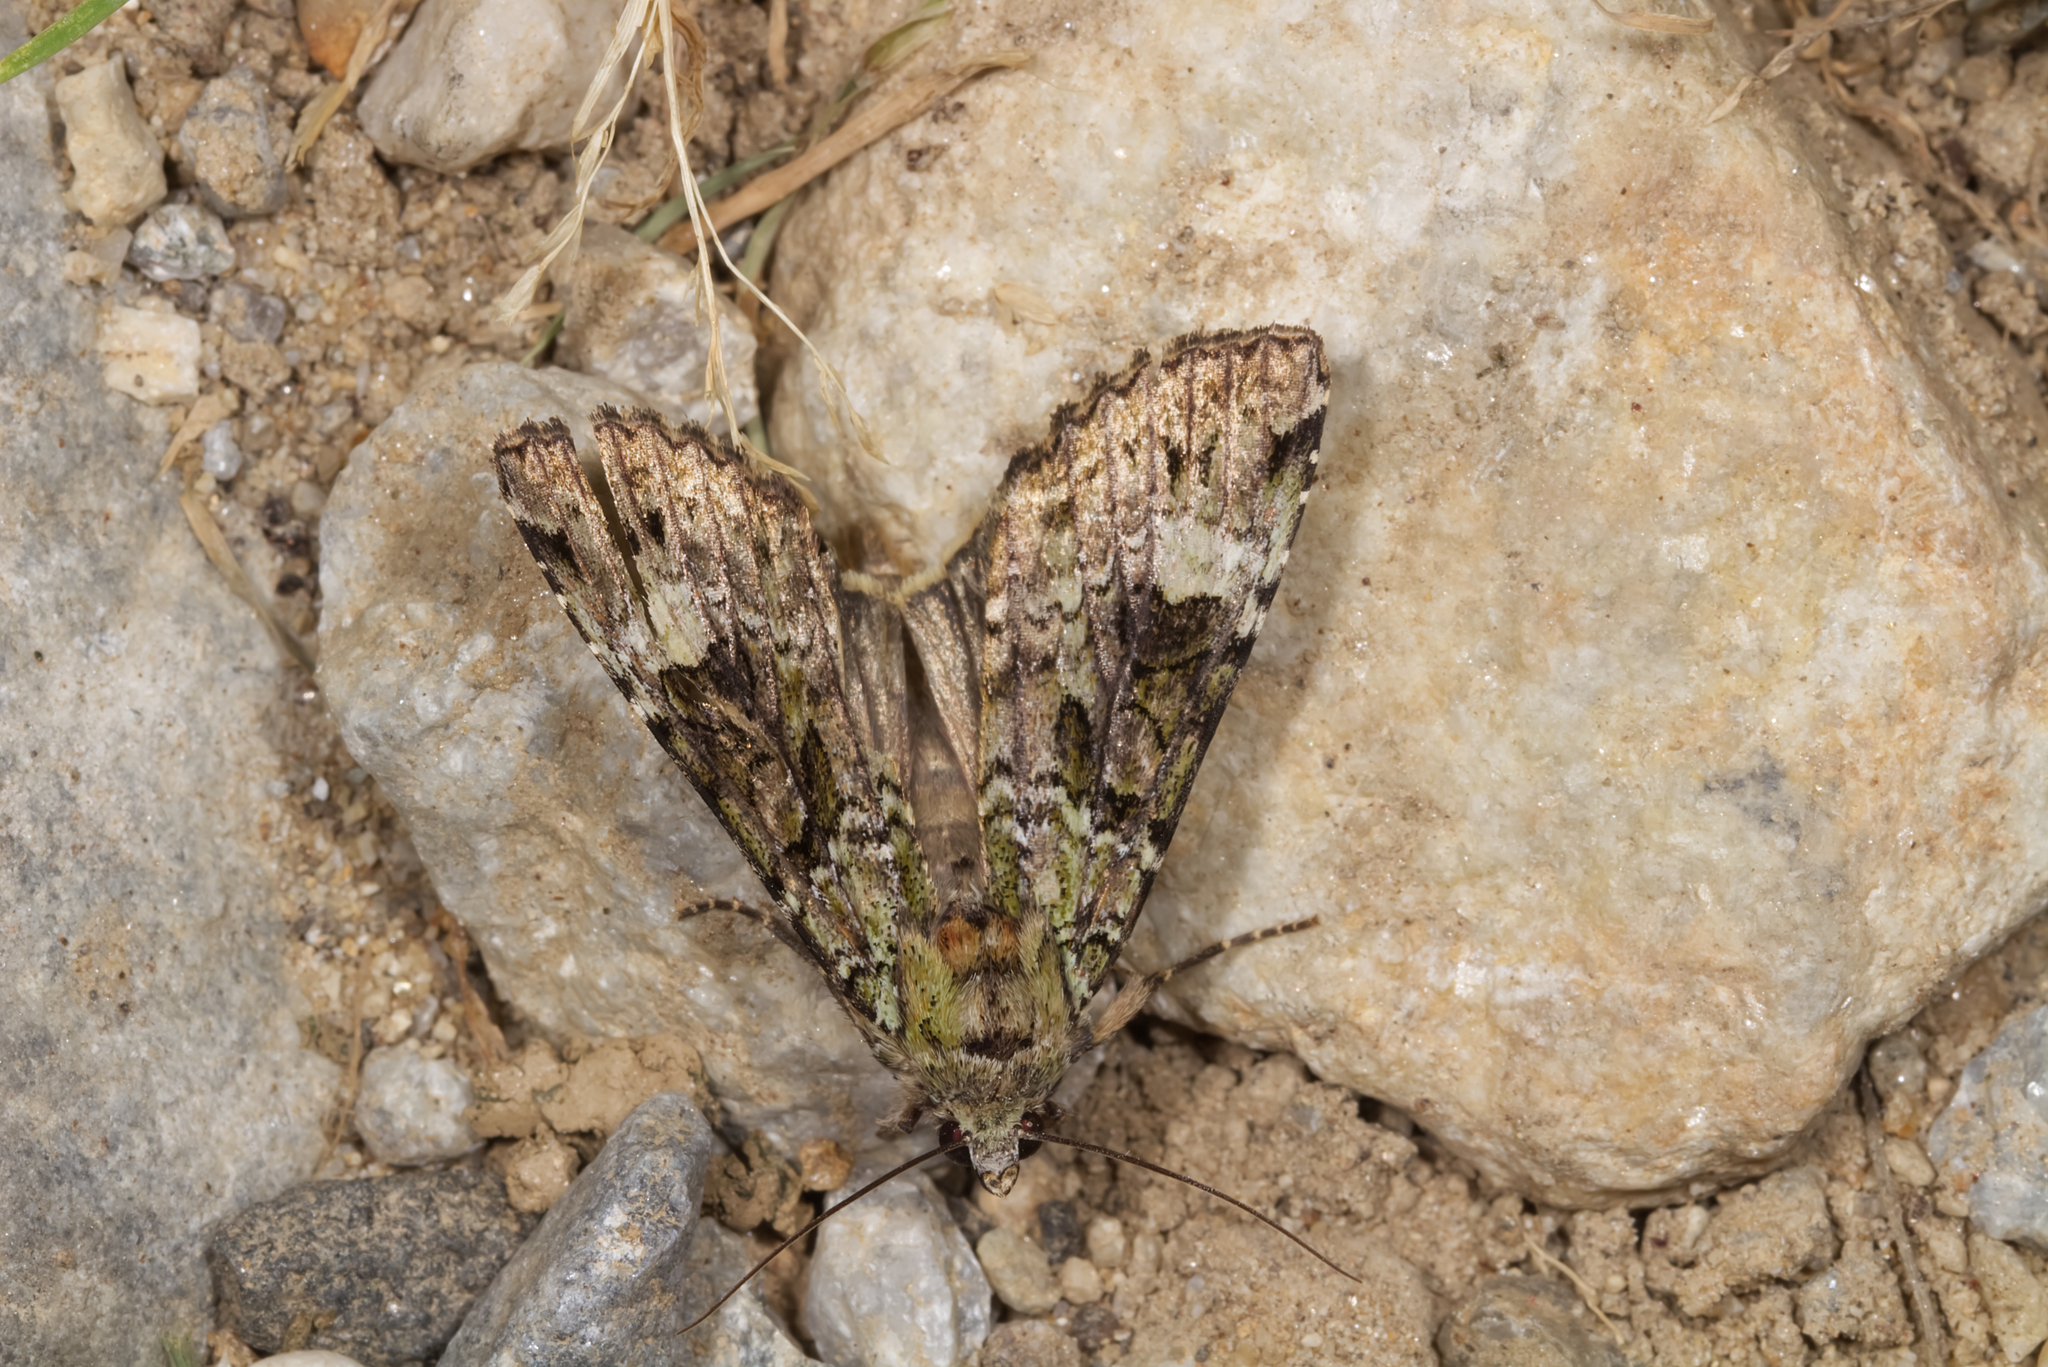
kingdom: Animalia
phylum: Arthropoda
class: Insecta
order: Lepidoptera
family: Noctuidae
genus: Anaplectoides
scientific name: Anaplectoides prasina
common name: Green arches
